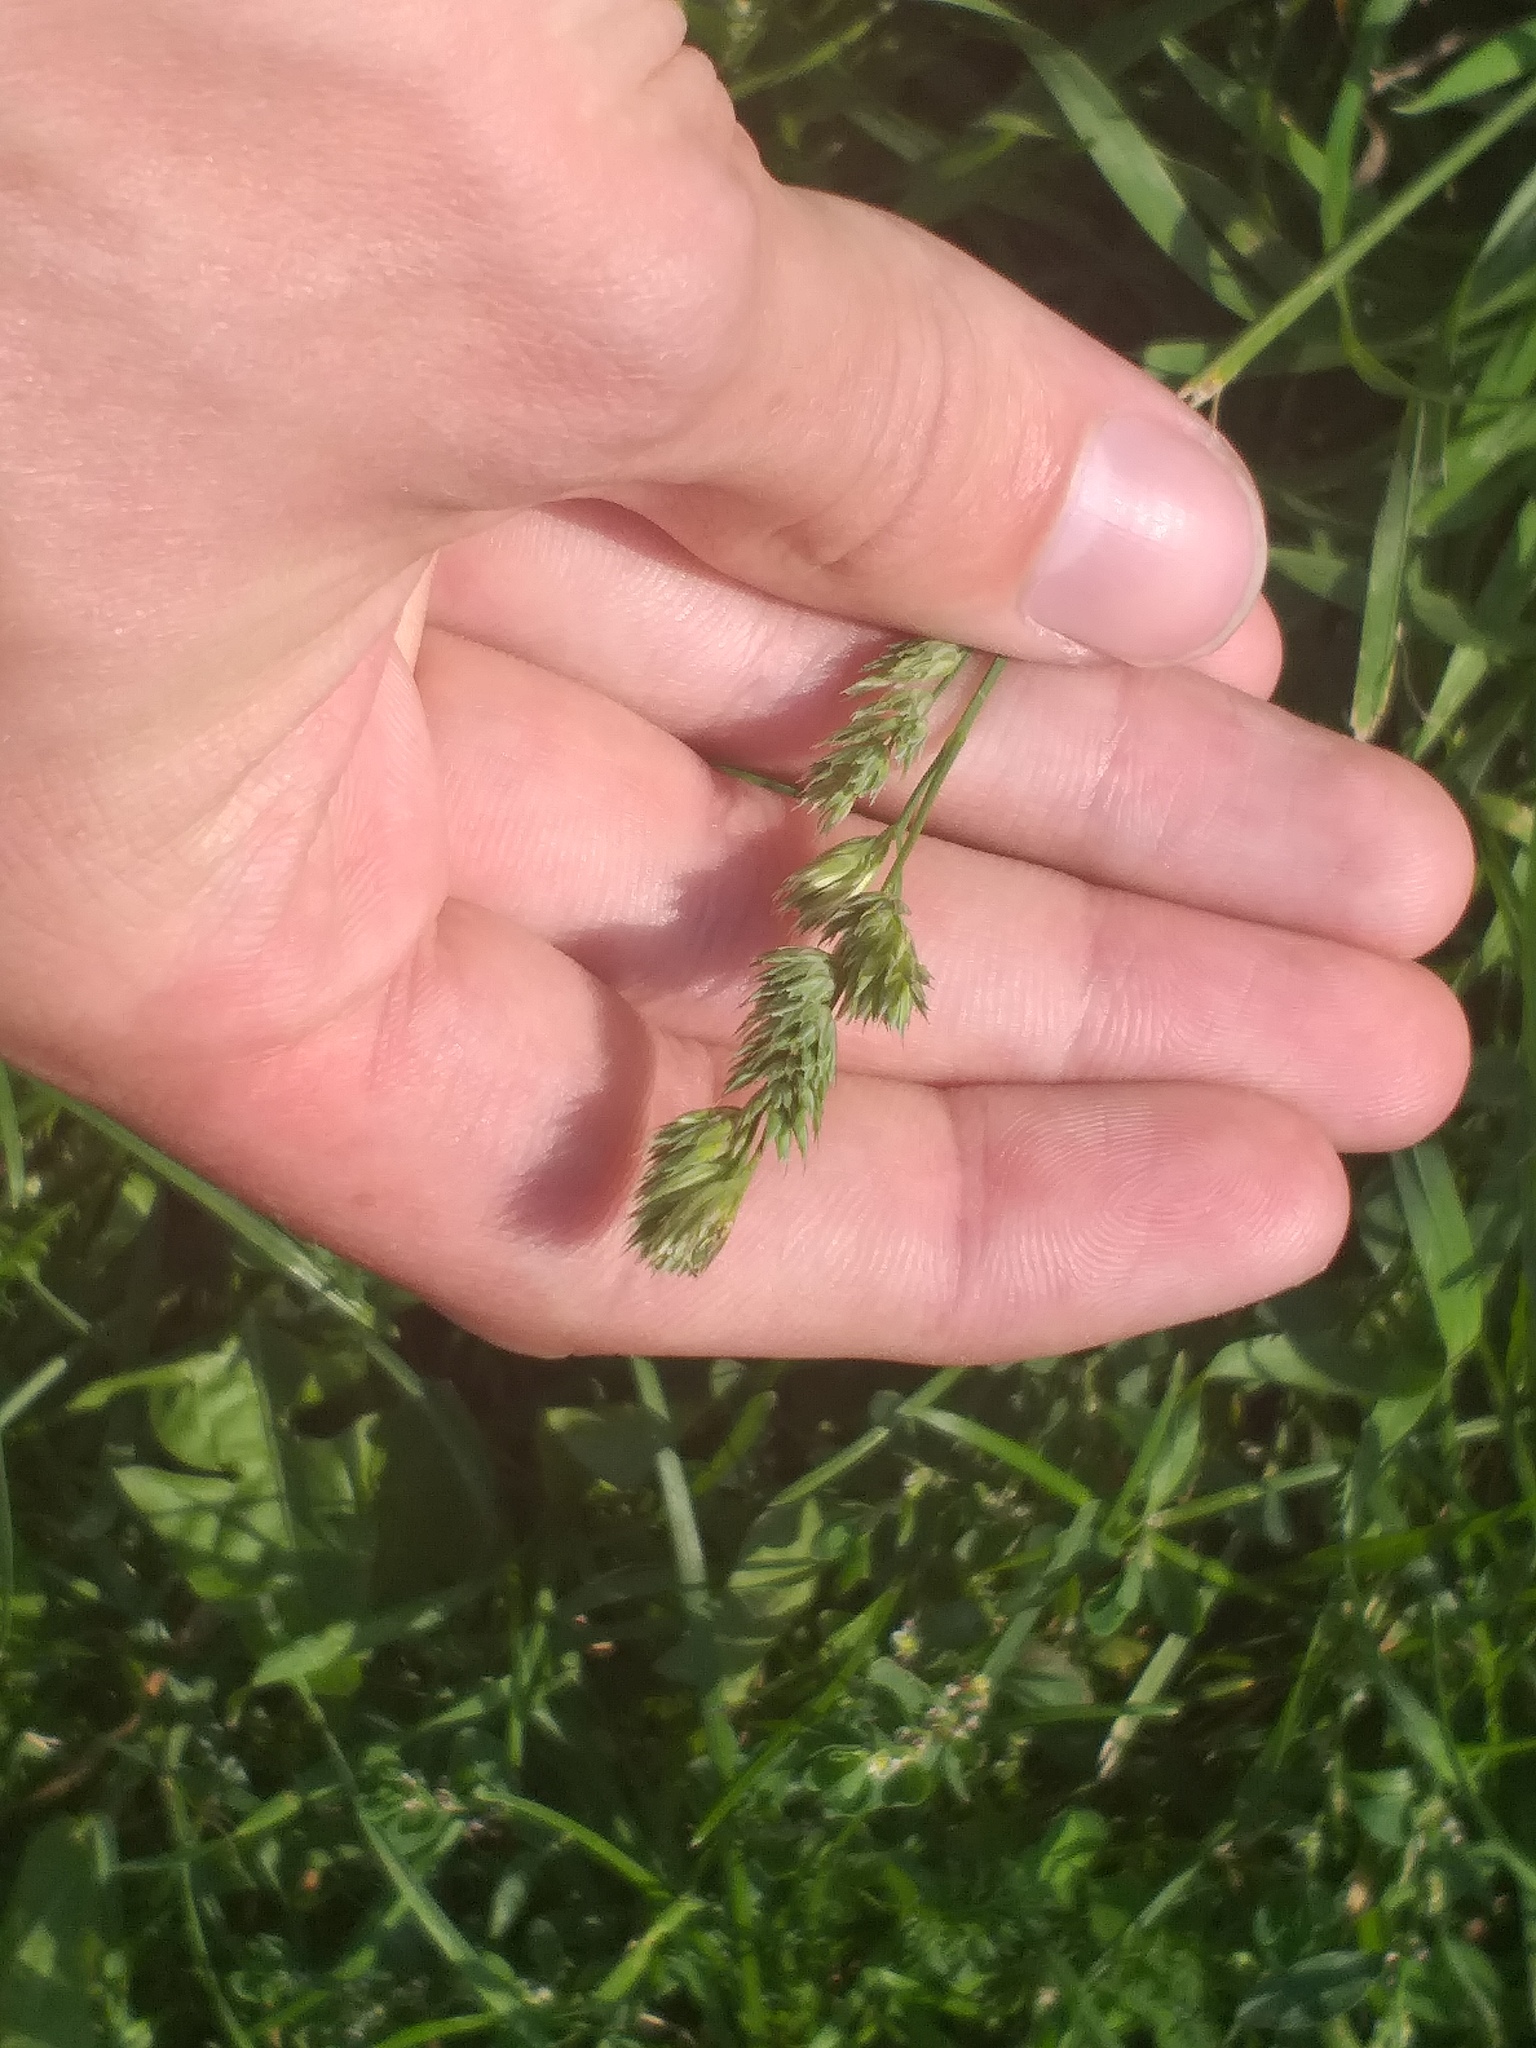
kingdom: Plantae
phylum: Tracheophyta
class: Liliopsida
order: Poales
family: Poaceae
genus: Dactylis
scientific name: Dactylis glomerata
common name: Orchardgrass
